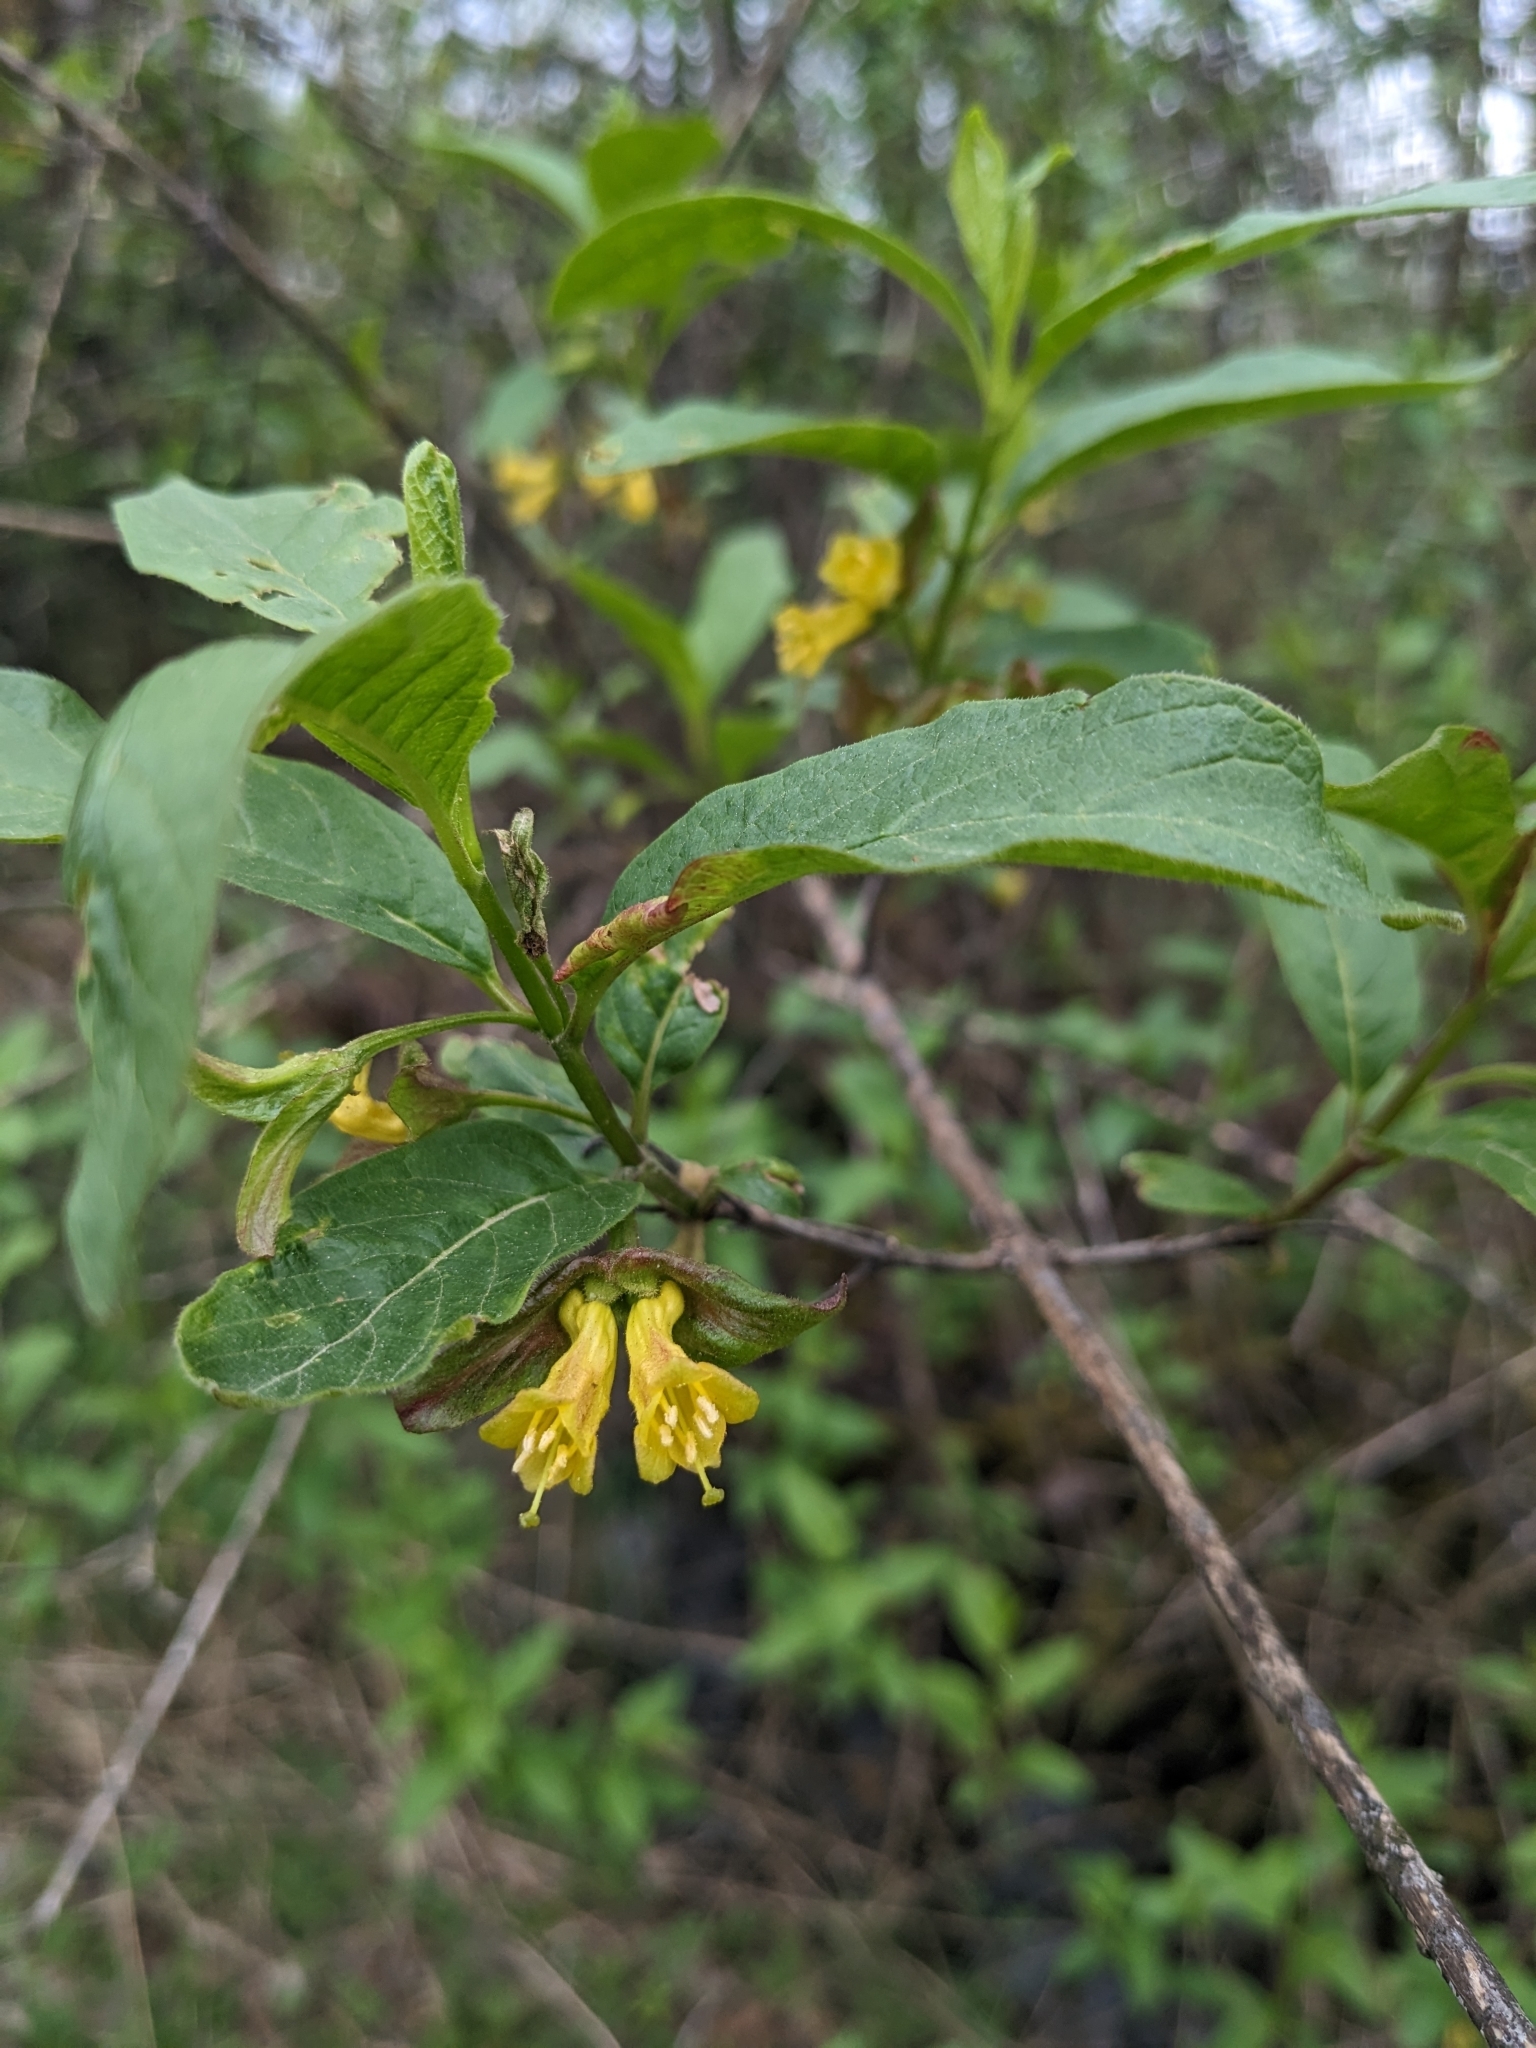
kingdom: Plantae
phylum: Tracheophyta
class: Magnoliopsida
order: Dipsacales
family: Caprifoliaceae
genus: Lonicera
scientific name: Lonicera involucrata
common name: Californian honeysuckle
